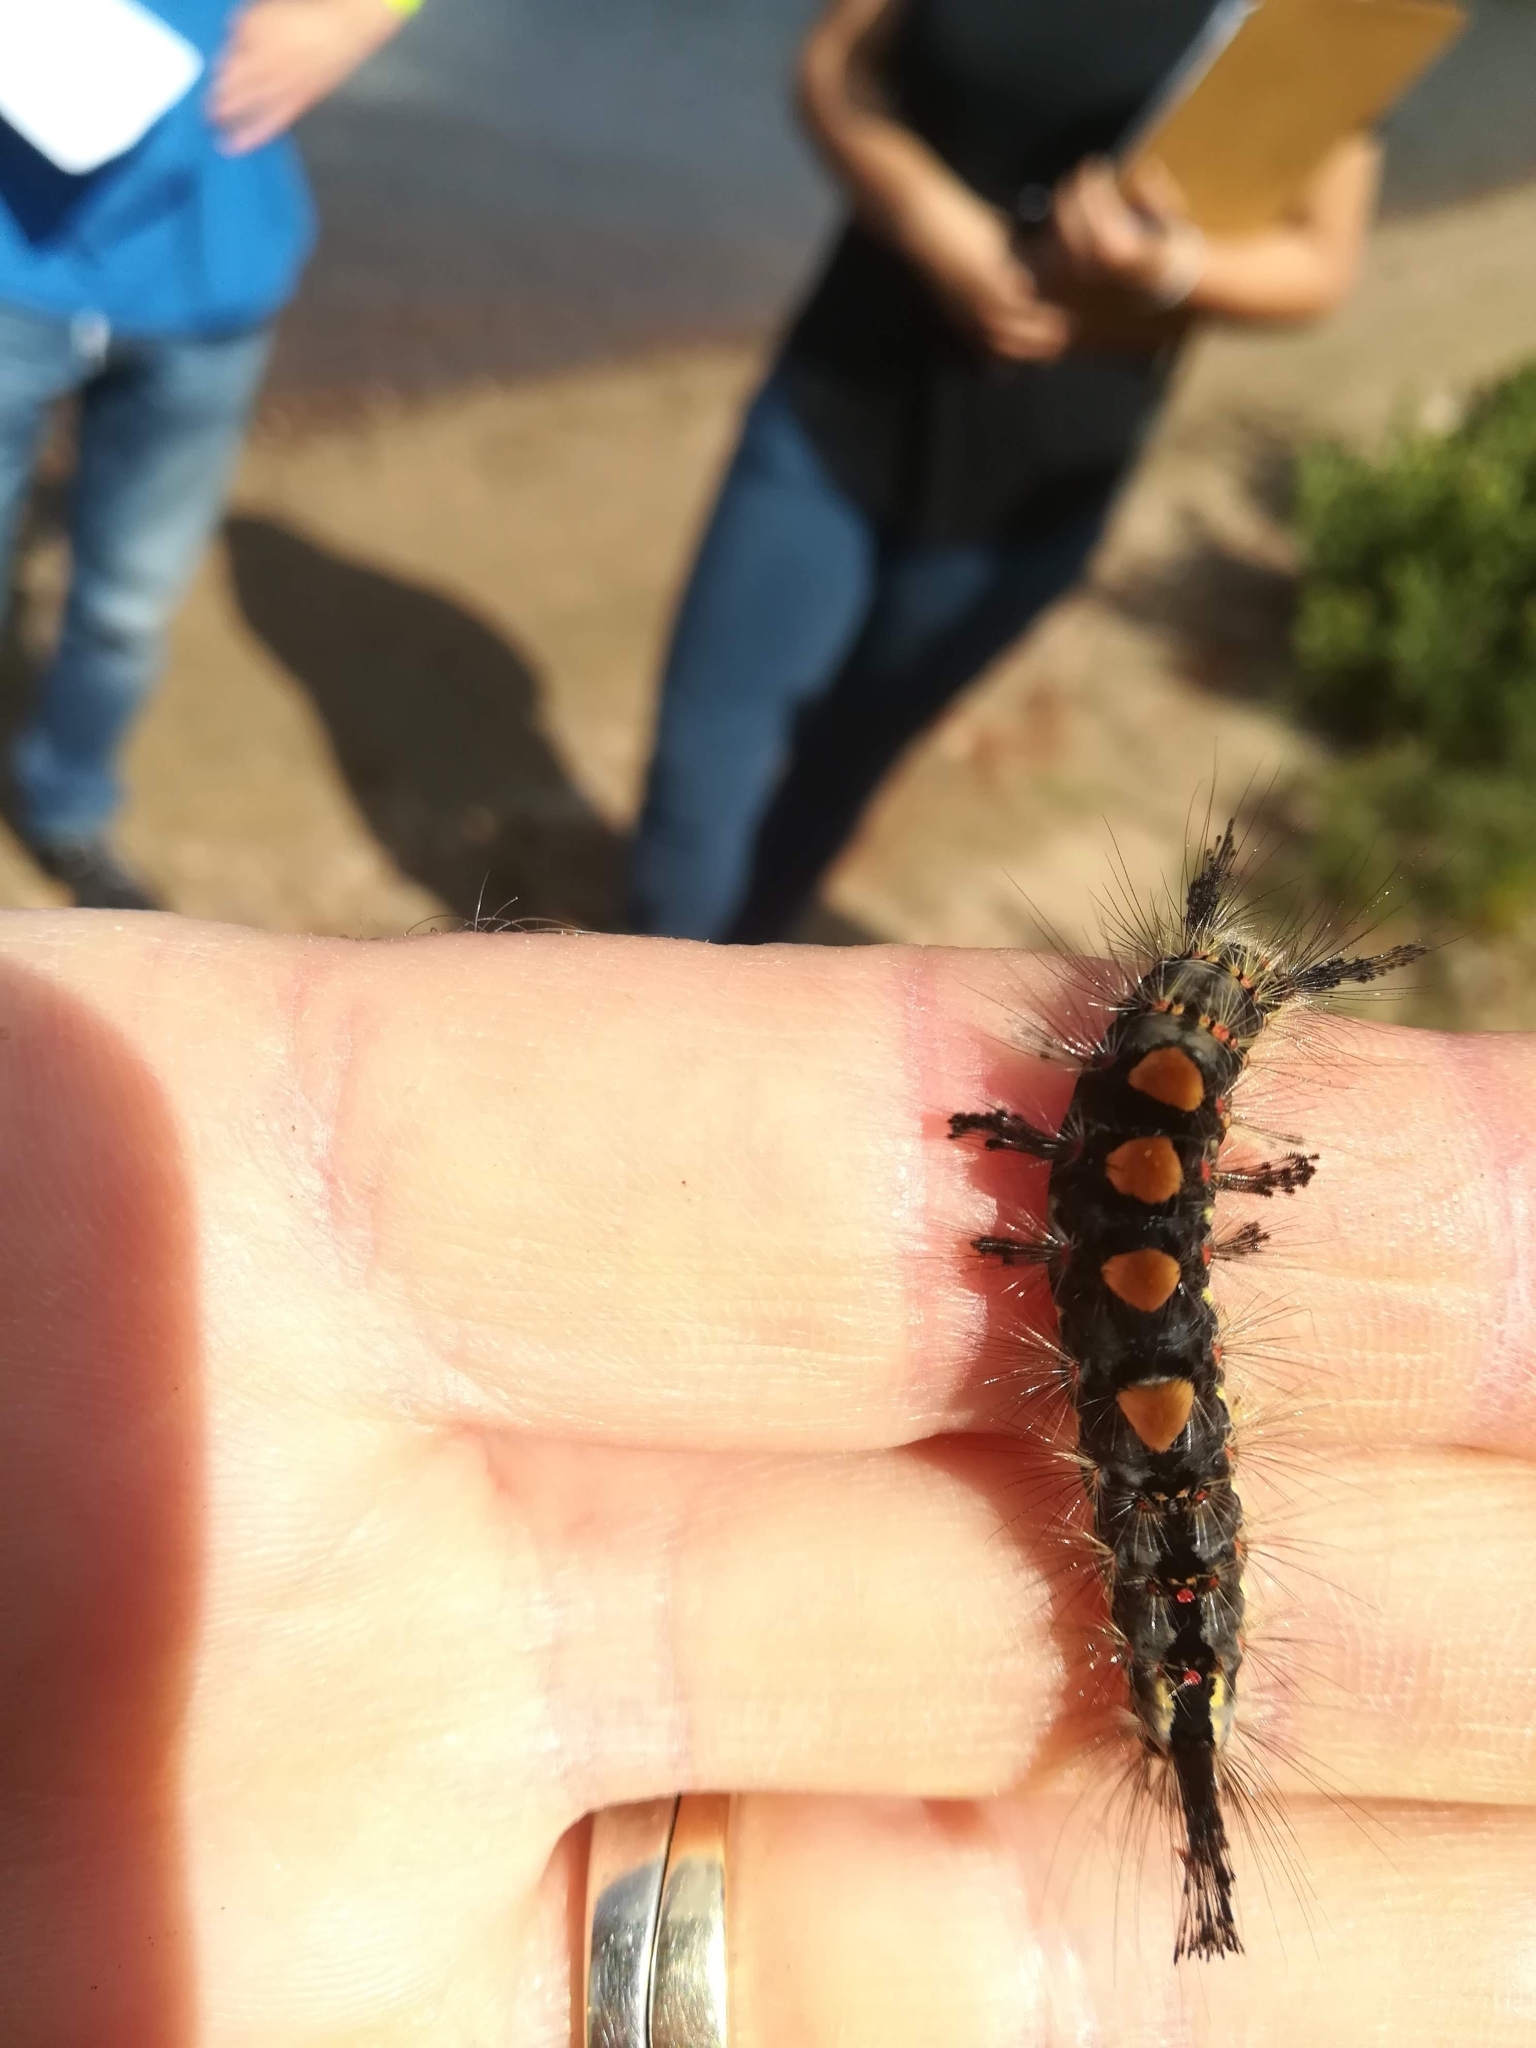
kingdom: Animalia
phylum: Arthropoda
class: Insecta
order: Lepidoptera
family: Erebidae
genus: Orgyia
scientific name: Orgyia antiqua
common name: Vapourer
